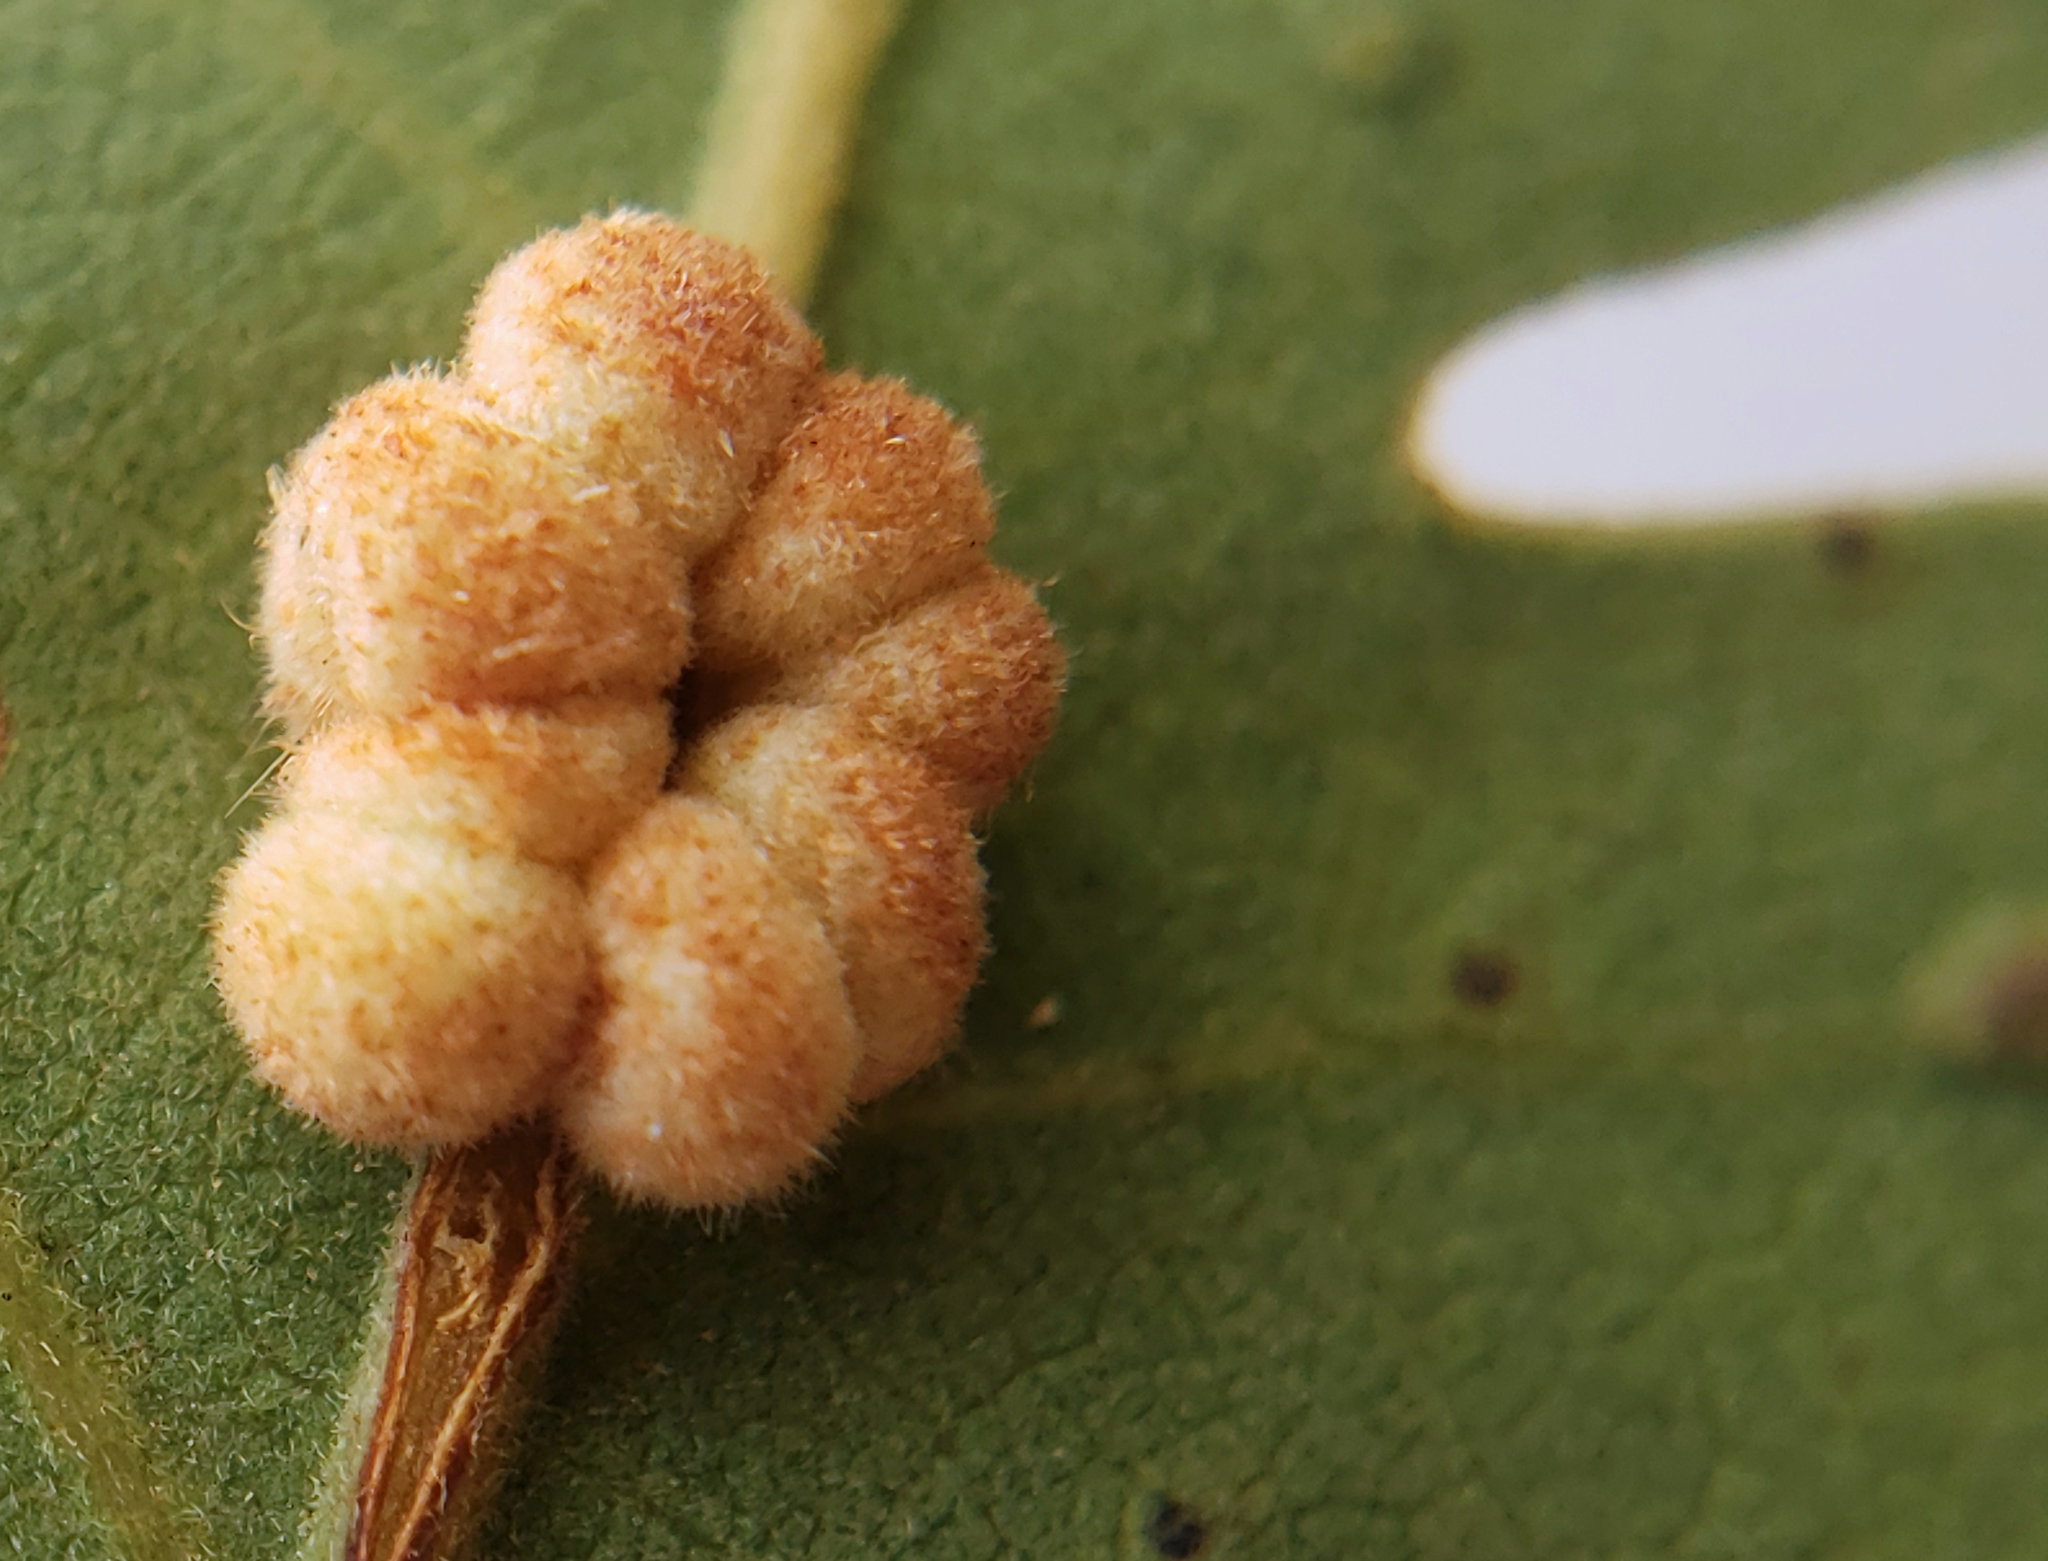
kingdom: Animalia
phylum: Arthropoda
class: Insecta
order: Hymenoptera
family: Cynipidae
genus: Andricus
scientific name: Andricus
